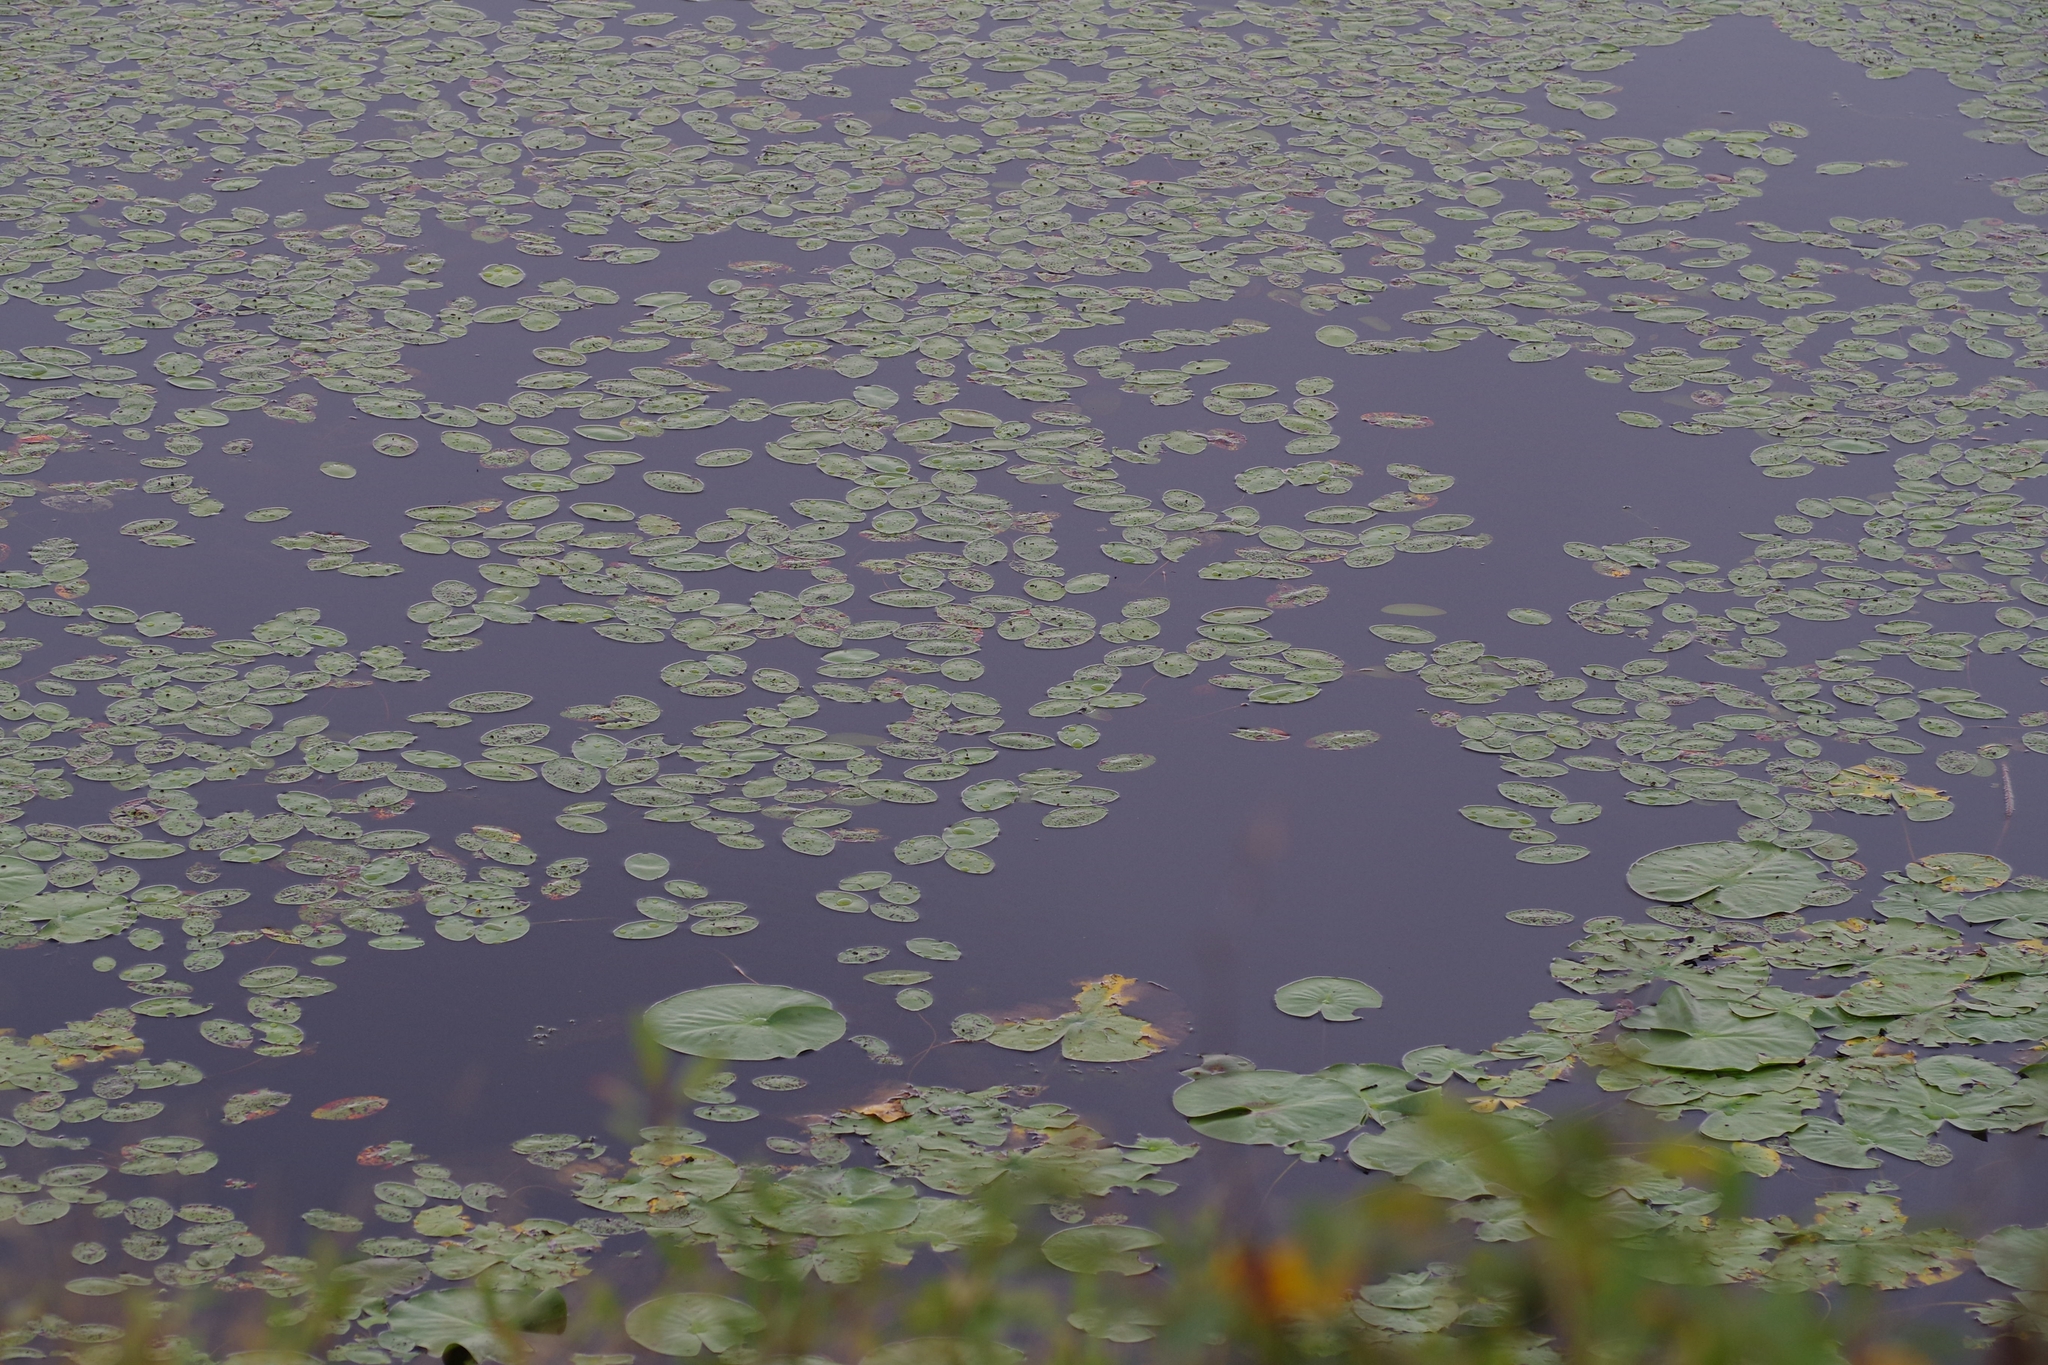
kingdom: Plantae
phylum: Tracheophyta
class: Magnoliopsida
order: Nymphaeales
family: Cabombaceae
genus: Brasenia
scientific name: Brasenia schreberi
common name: Water-shield
